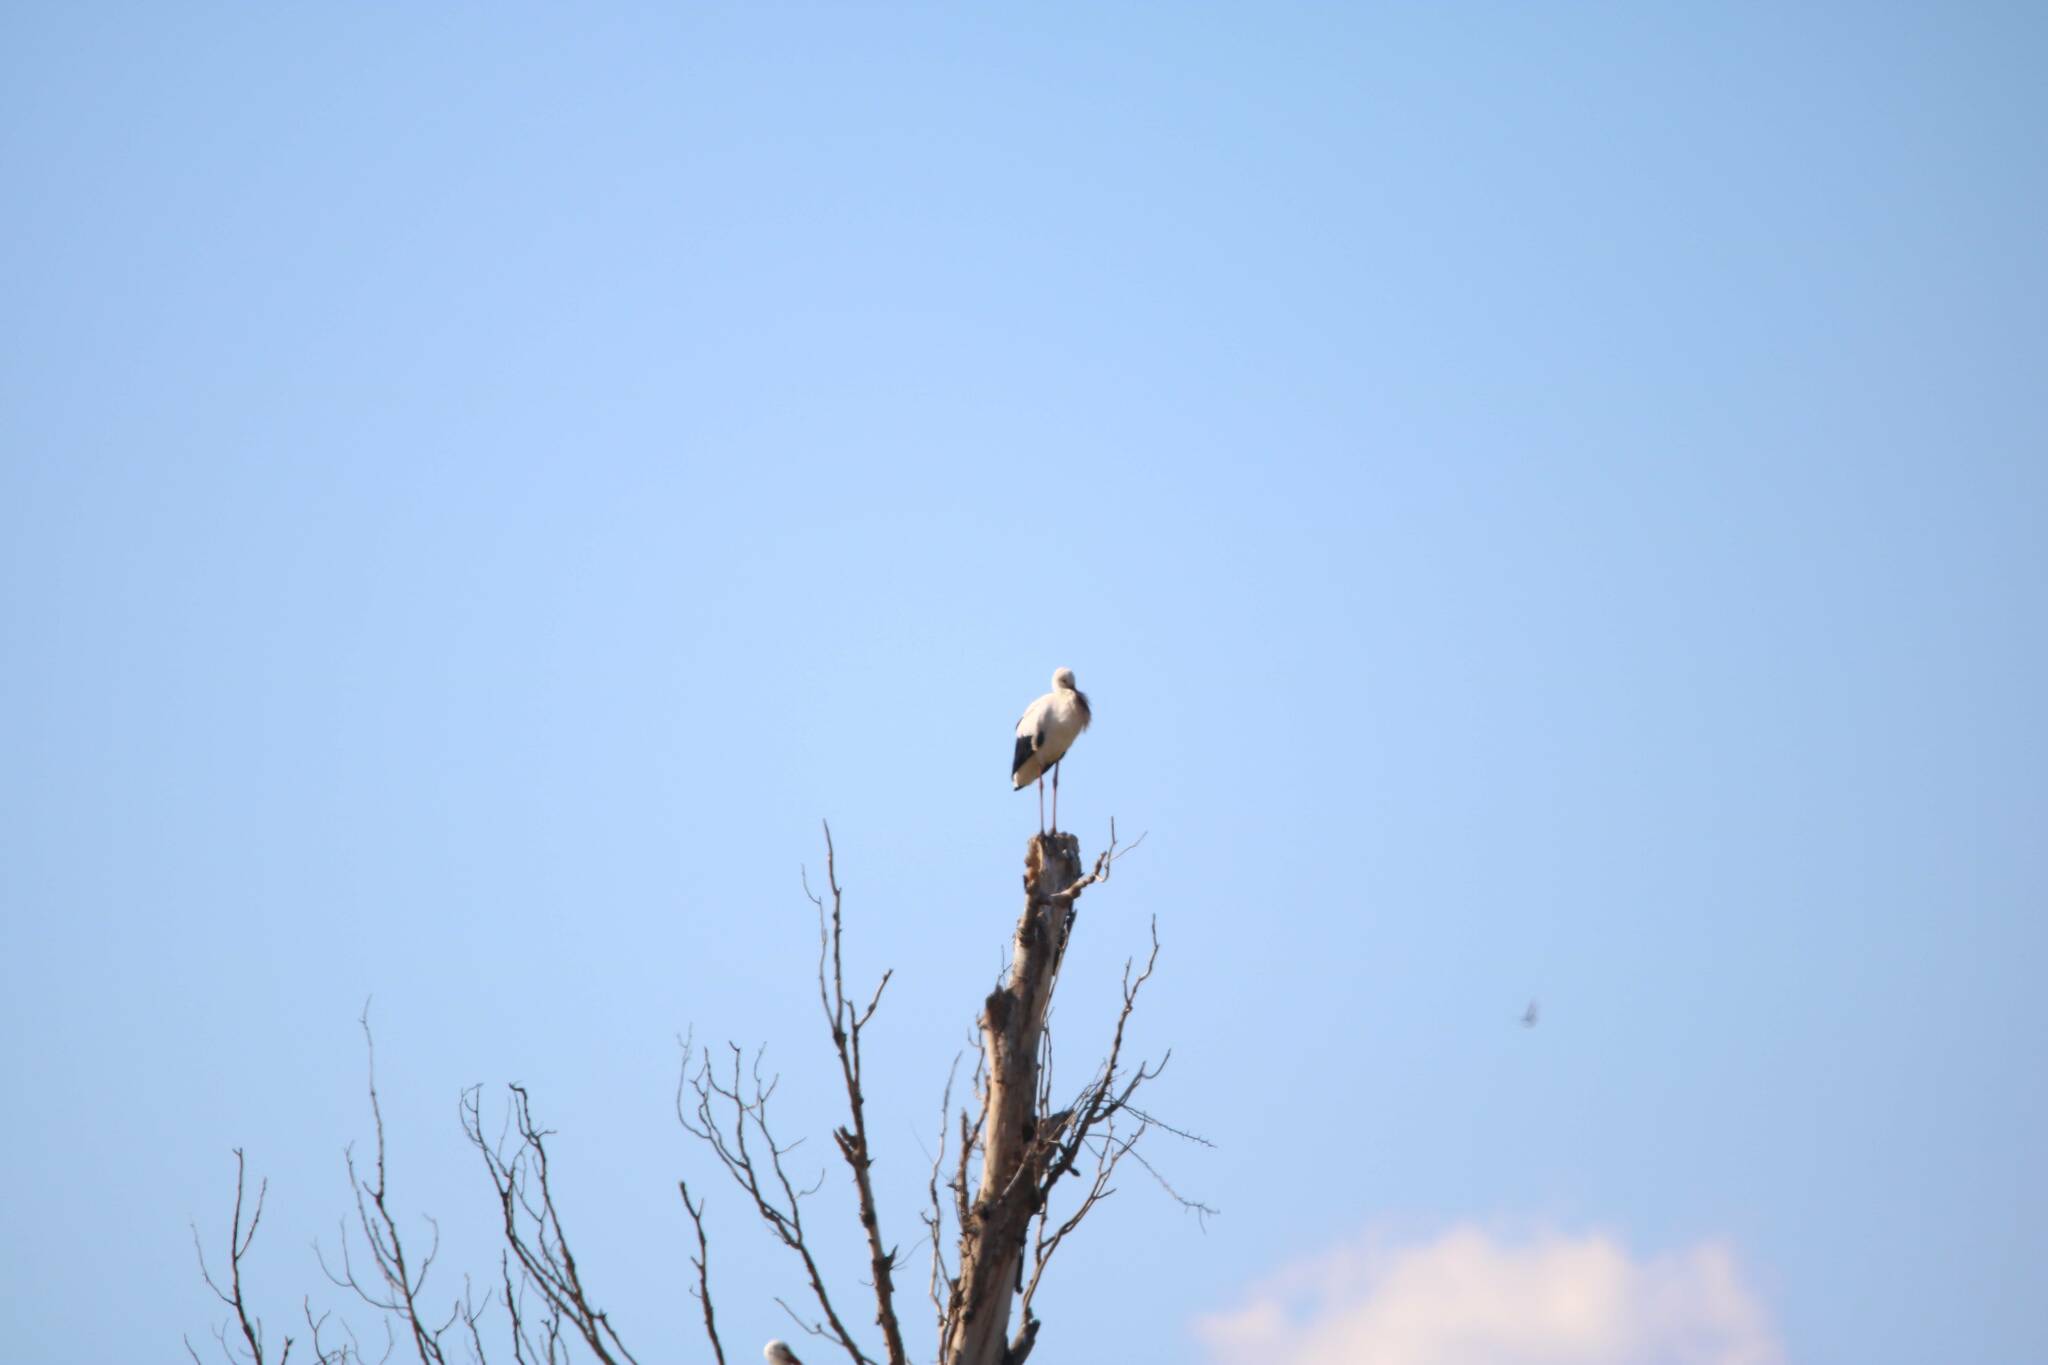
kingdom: Animalia
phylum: Chordata
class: Aves
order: Ciconiiformes
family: Ciconiidae
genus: Ciconia
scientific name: Ciconia ciconia
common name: White stork
